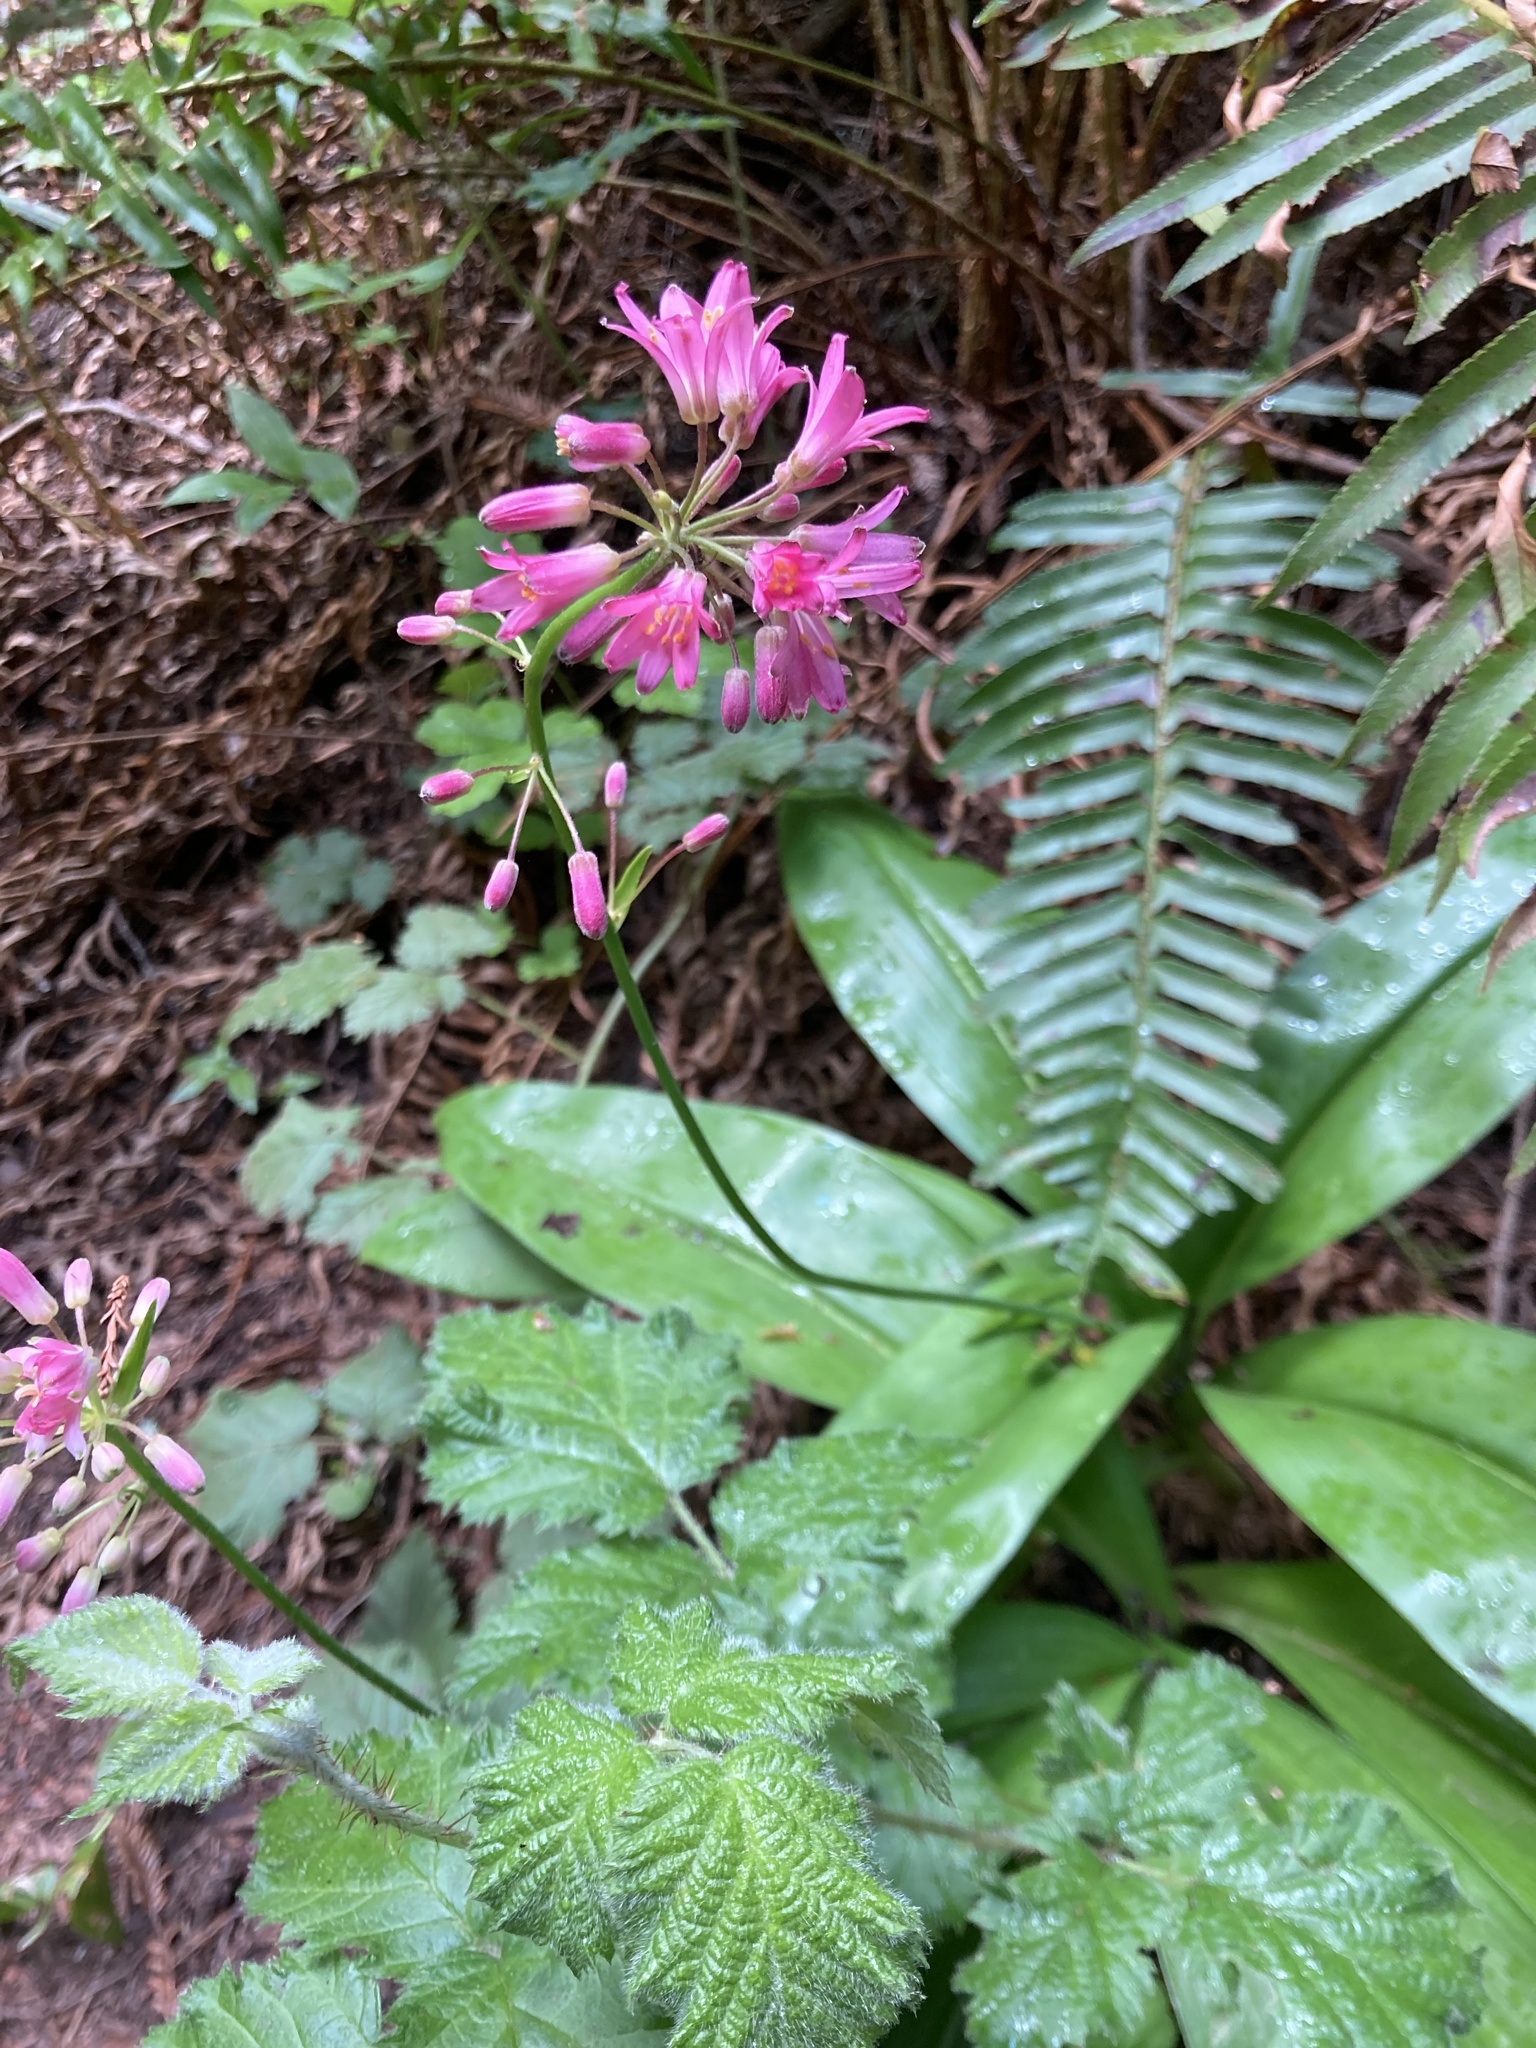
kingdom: Plantae
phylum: Tracheophyta
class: Liliopsida
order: Liliales
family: Liliaceae
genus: Clintonia
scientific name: Clintonia andrewsiana
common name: Red clintonia
